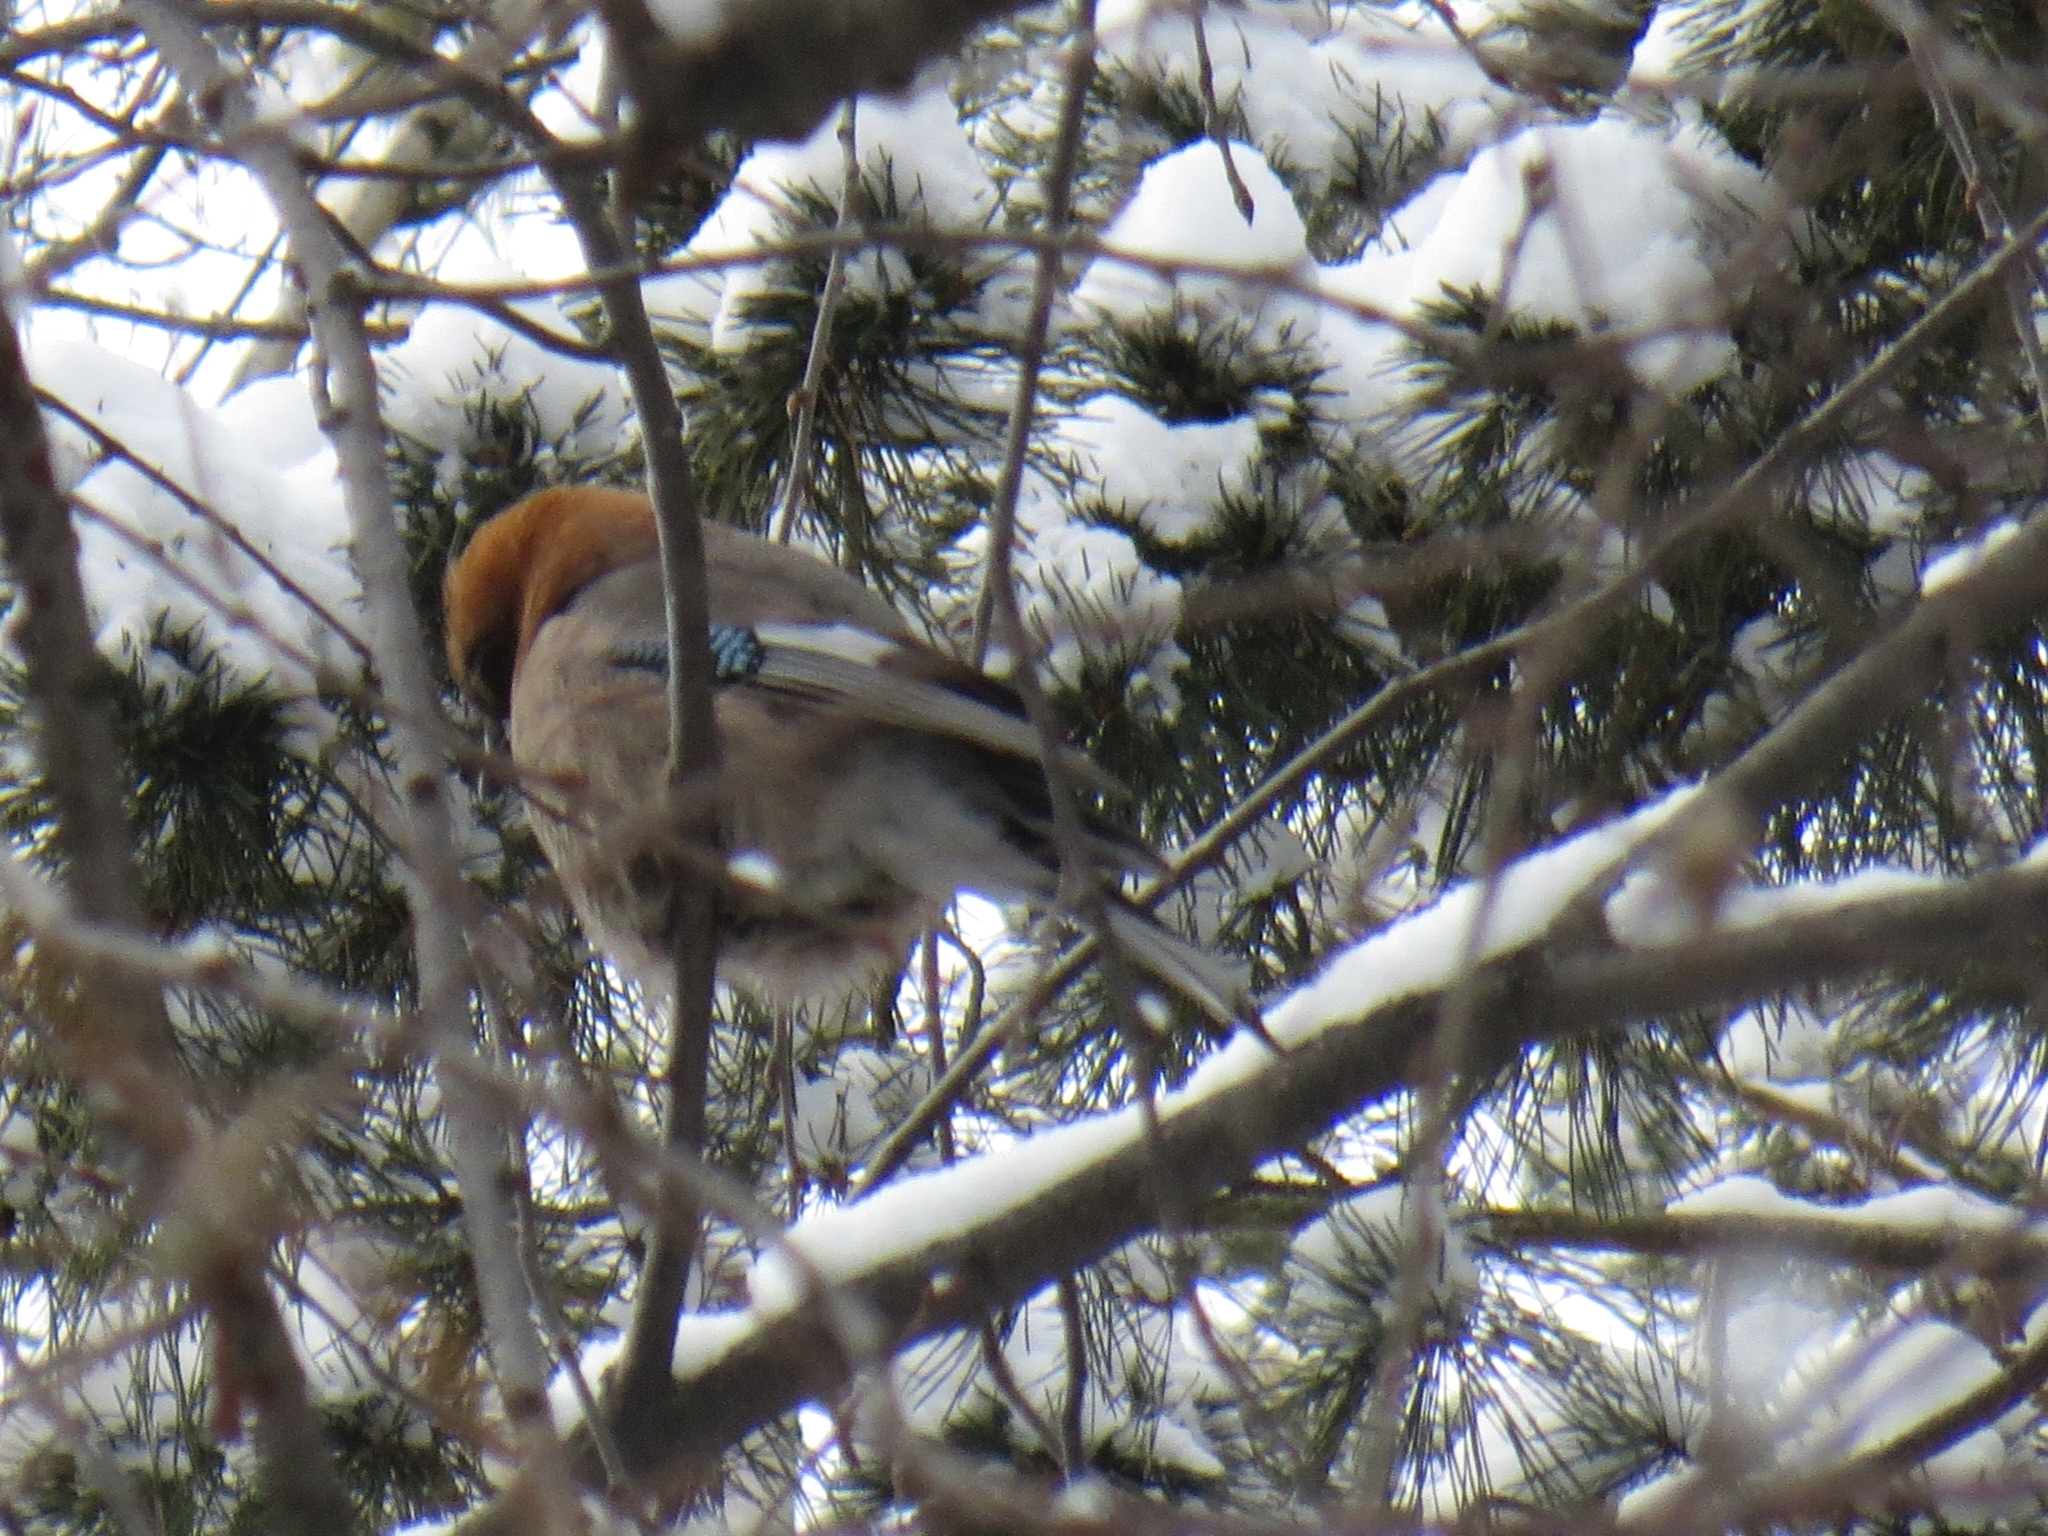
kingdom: Animalia
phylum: Chordata
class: Aves
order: Passeriformes
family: Corvidae
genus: Garrulus
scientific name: Garrulus glandarius
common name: Eurasian jay
